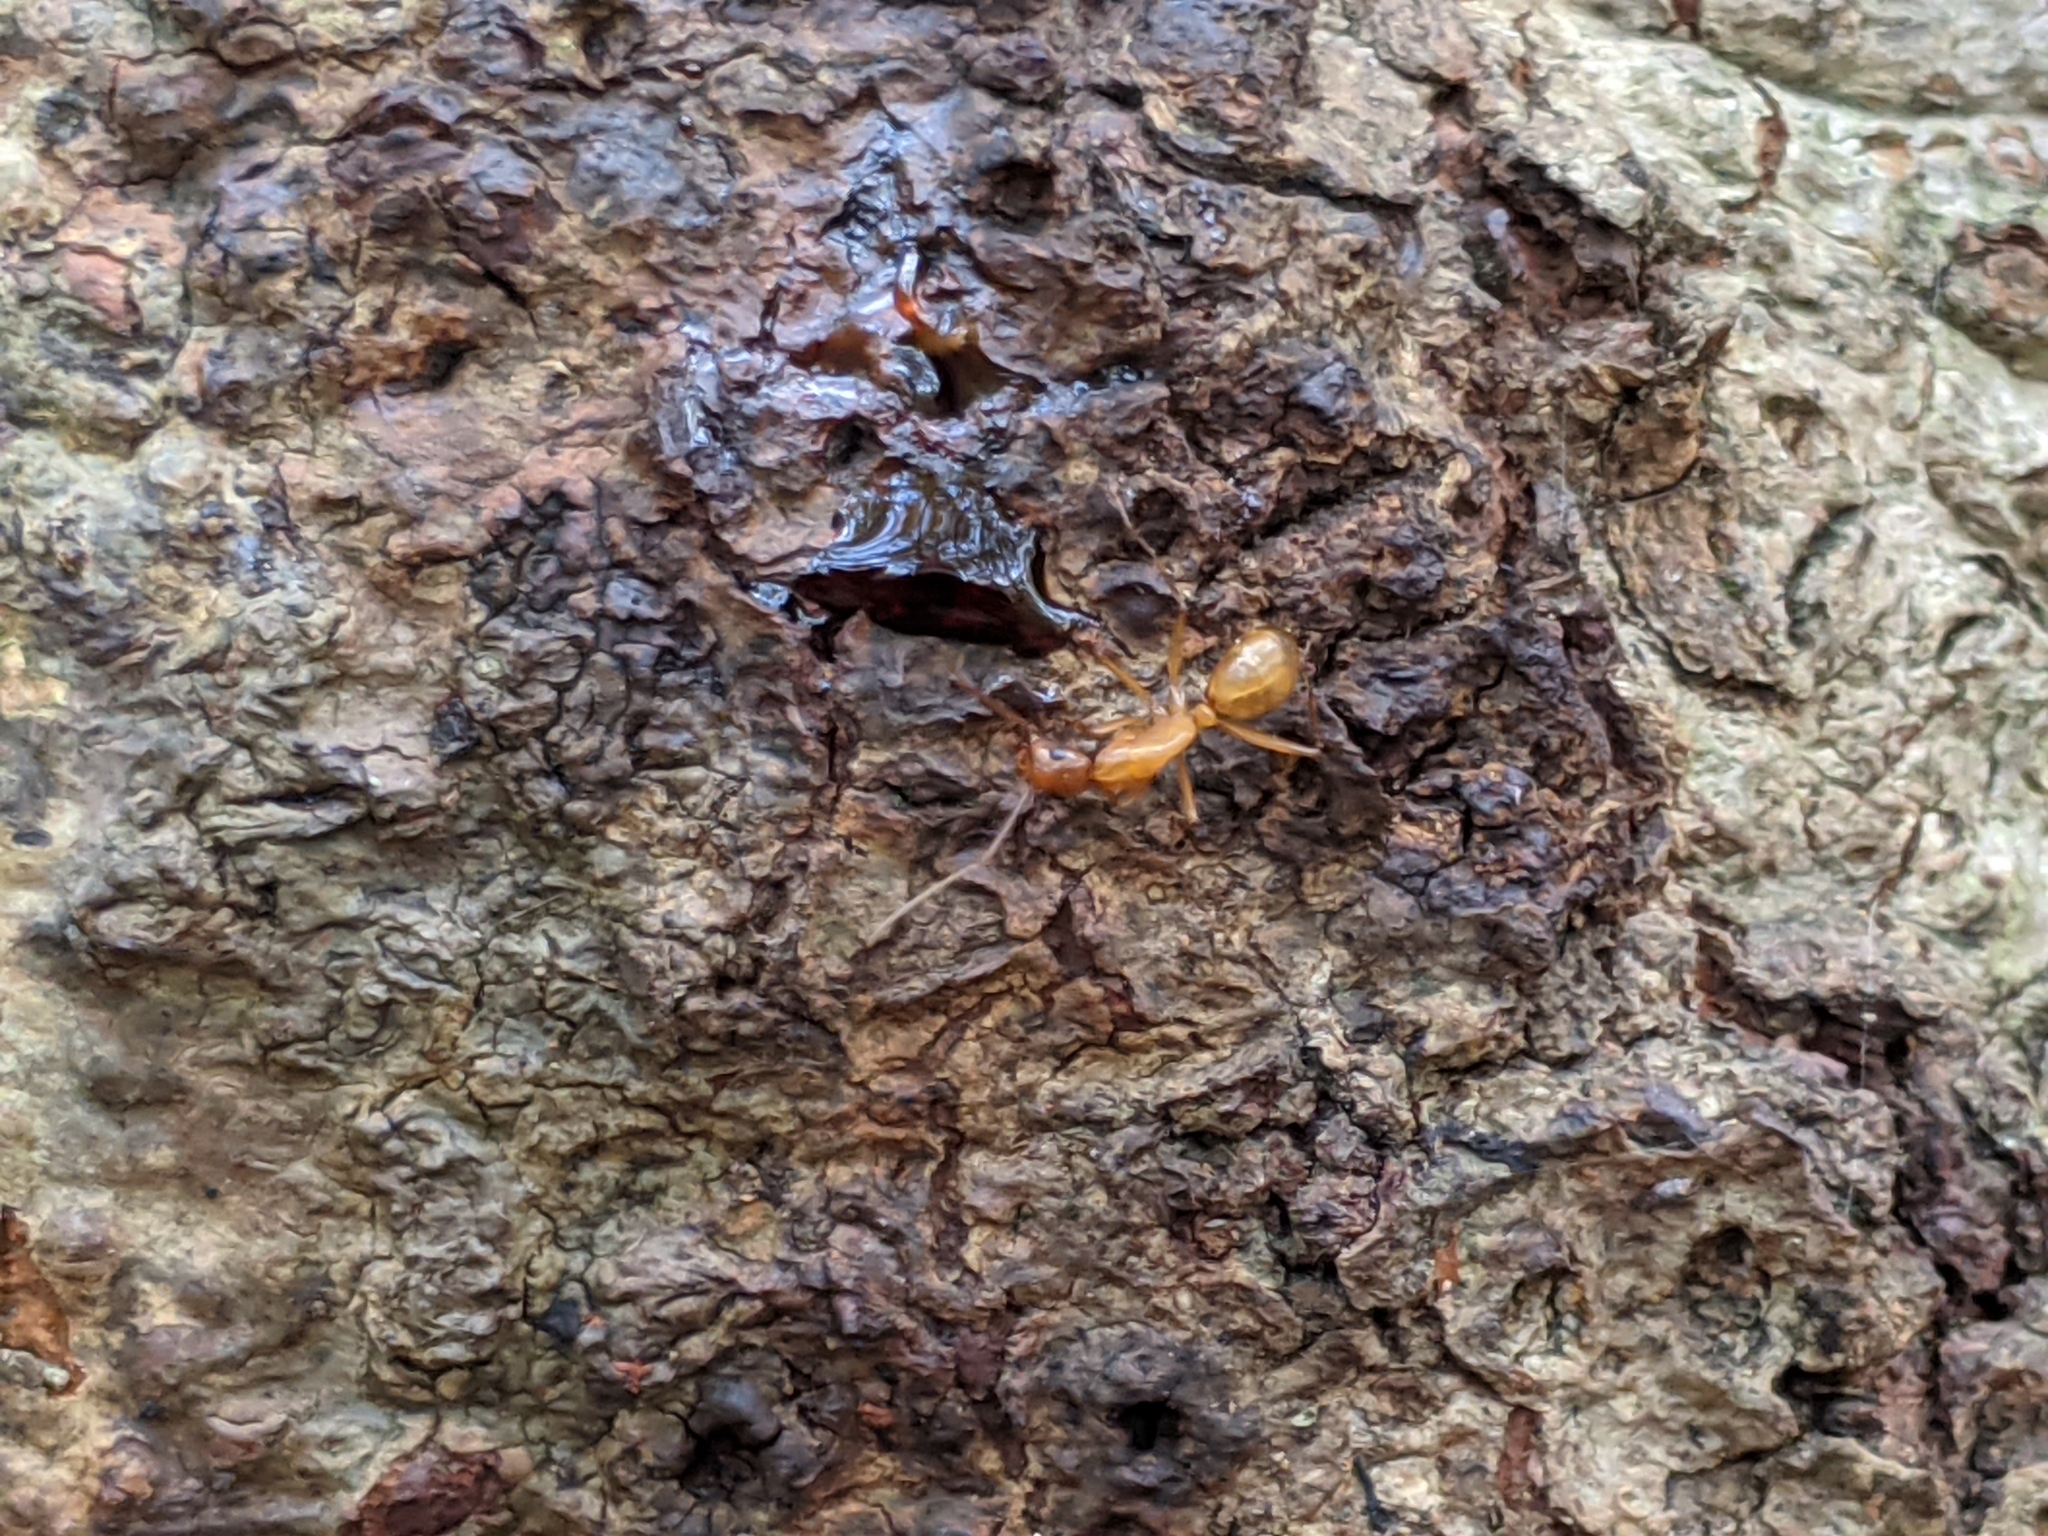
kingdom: Animalia
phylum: Arthropoda
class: Insecta
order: Hymenoptera
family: Formicidae
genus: Camponotus
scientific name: Camponotus castaneus
